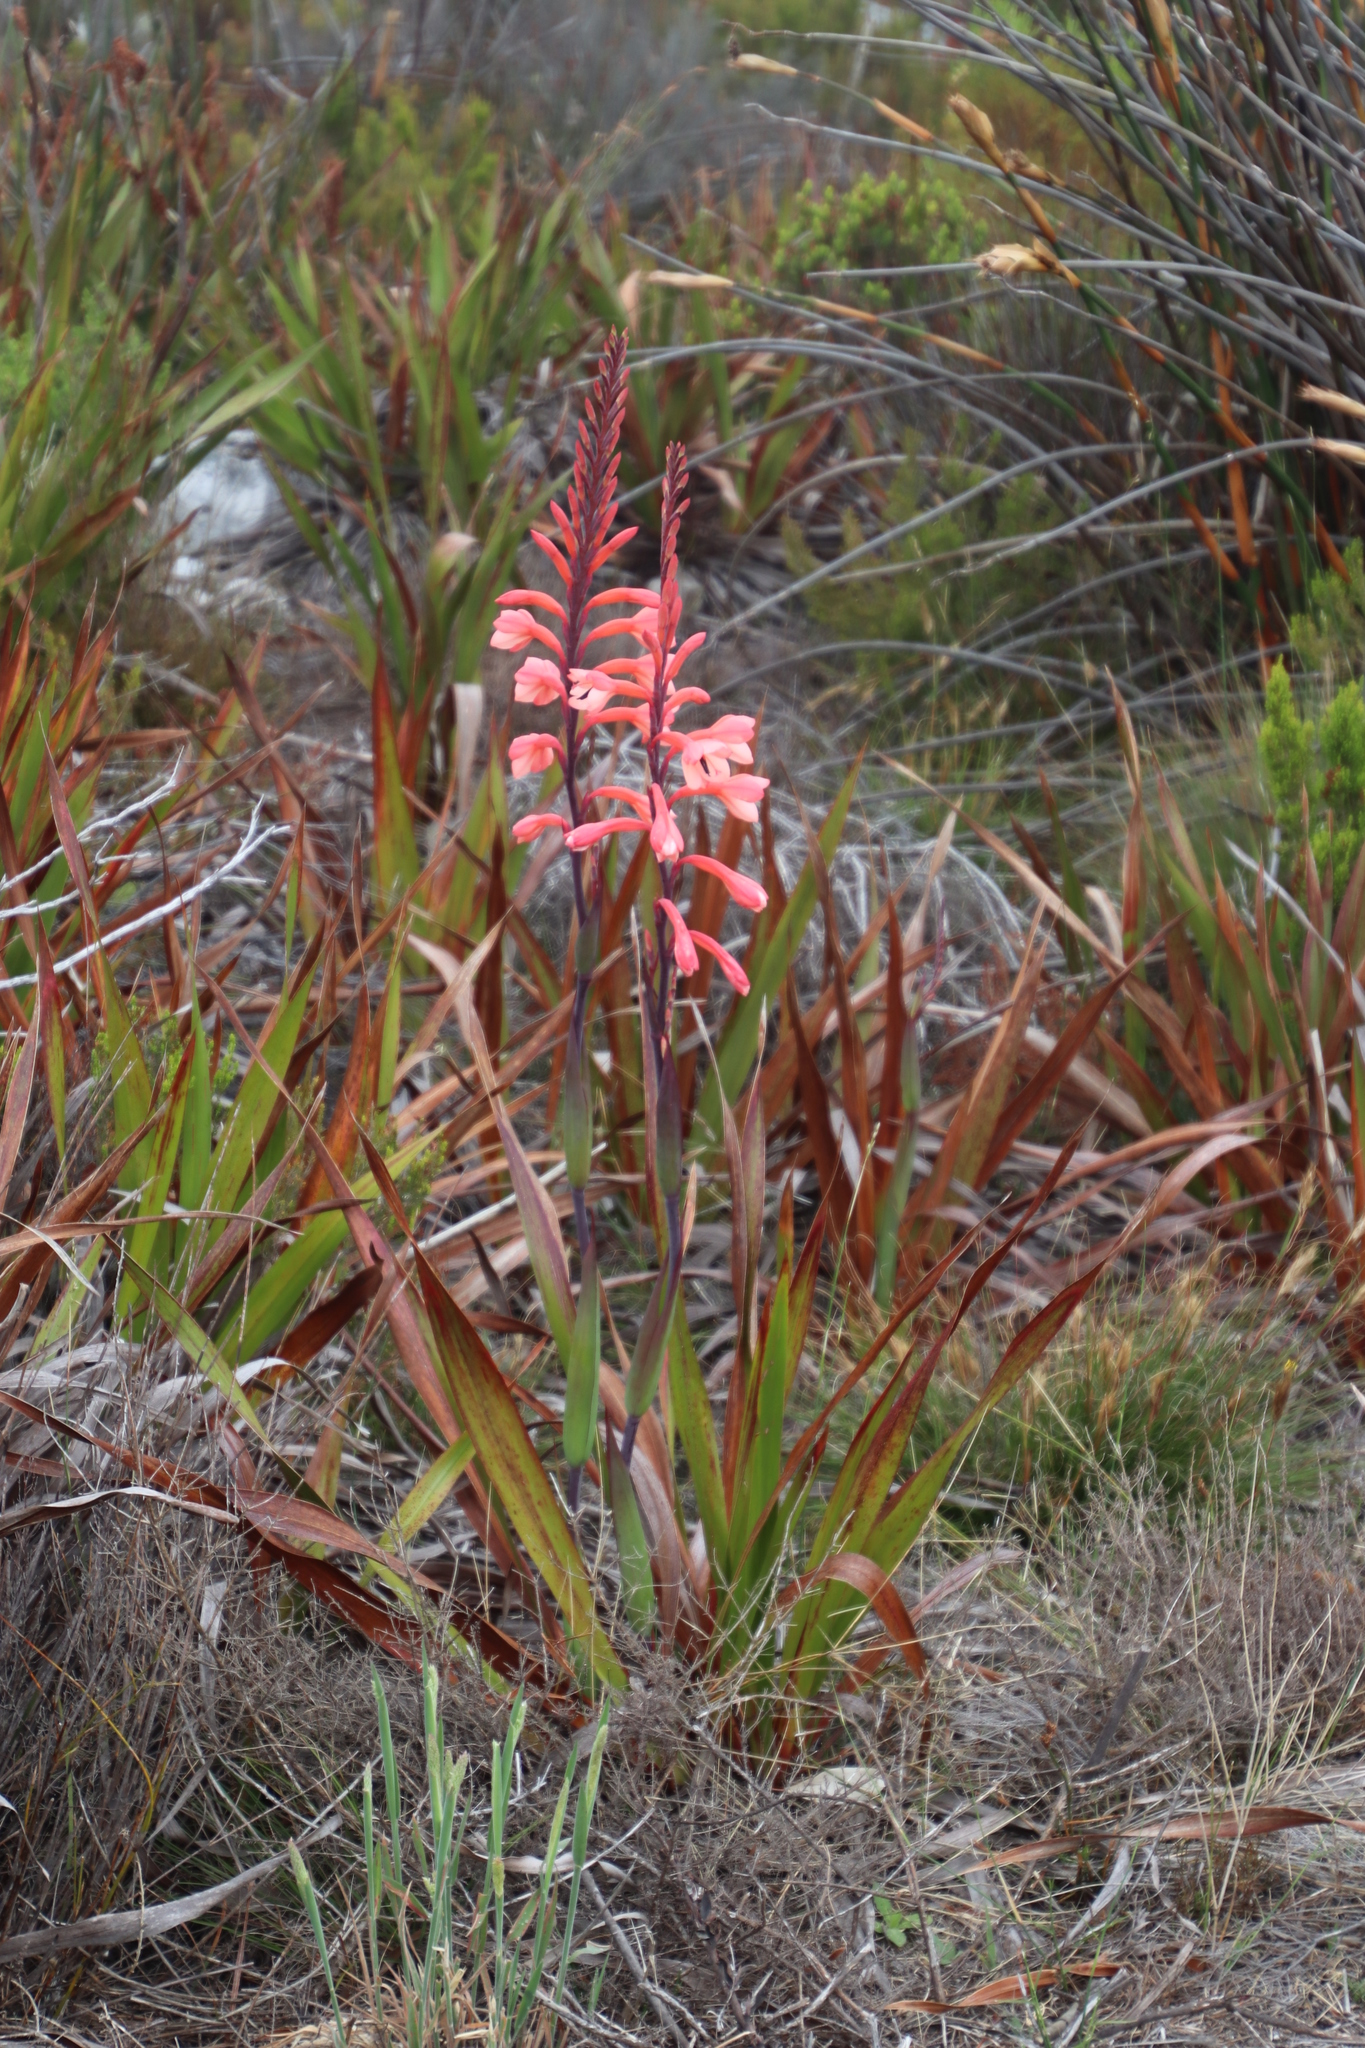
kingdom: Plantae
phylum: Tracheophyta
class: Liliopsida
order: Asparagales
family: Iridaceae
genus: Watsonia
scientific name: Watsonia tabularis
